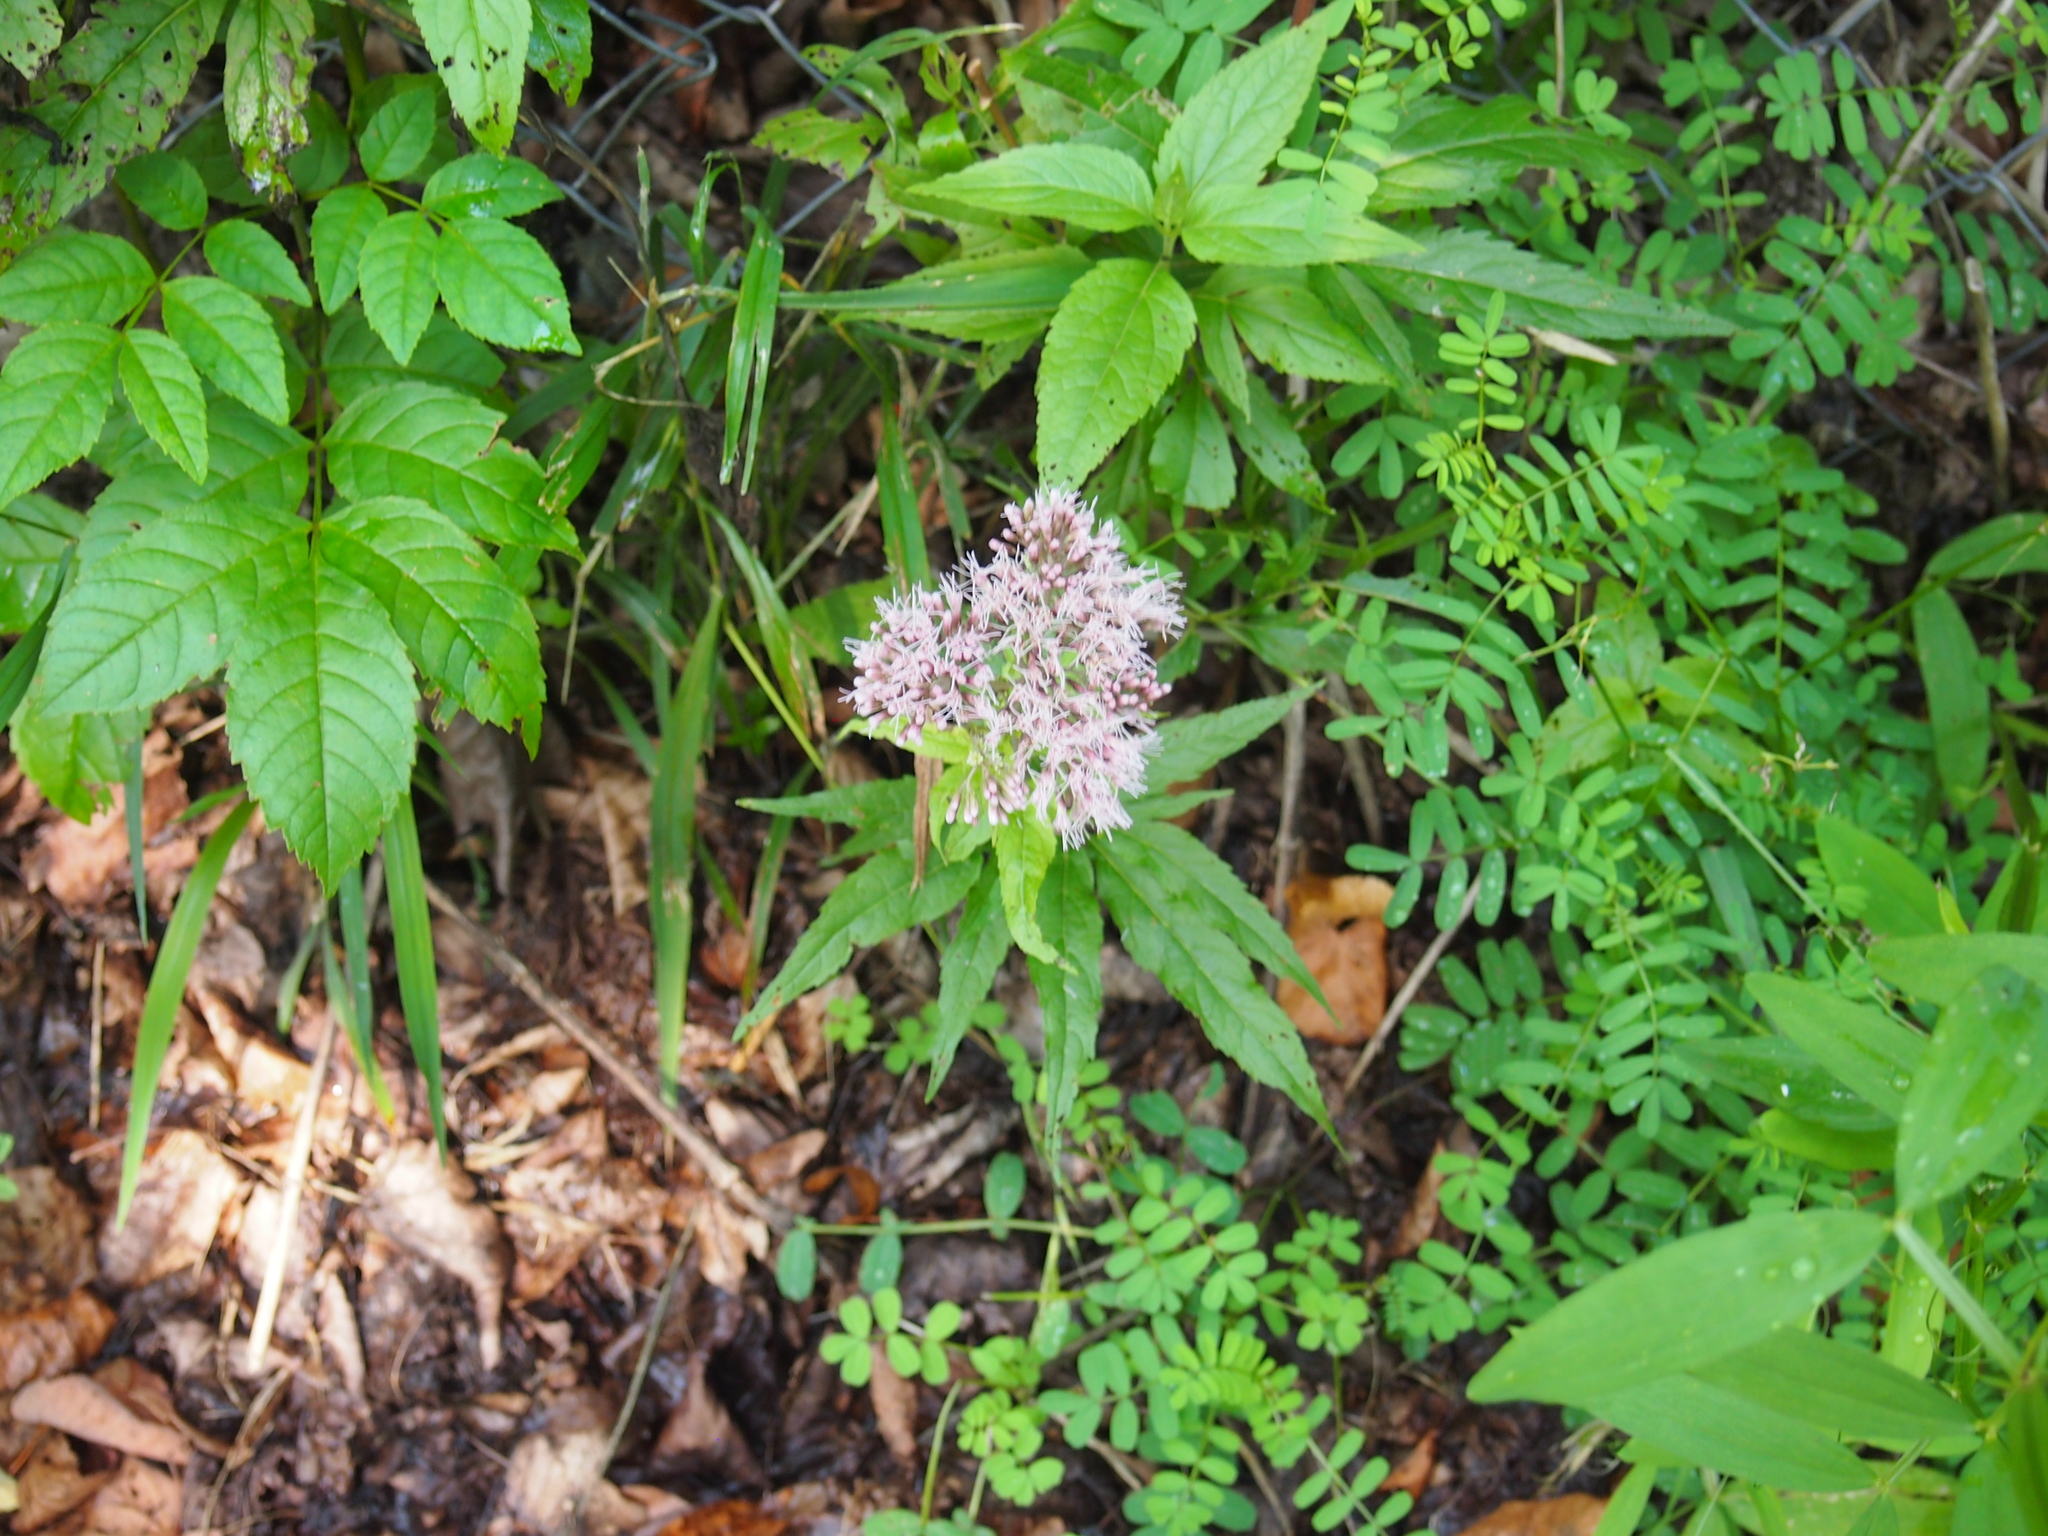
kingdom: Plantae
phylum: Tracheophyta
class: Magnoliopsida
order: Asterales
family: Asteraceae
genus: Eupatorium
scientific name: Eupatorium cannabinum
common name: Hemp-agrimony
